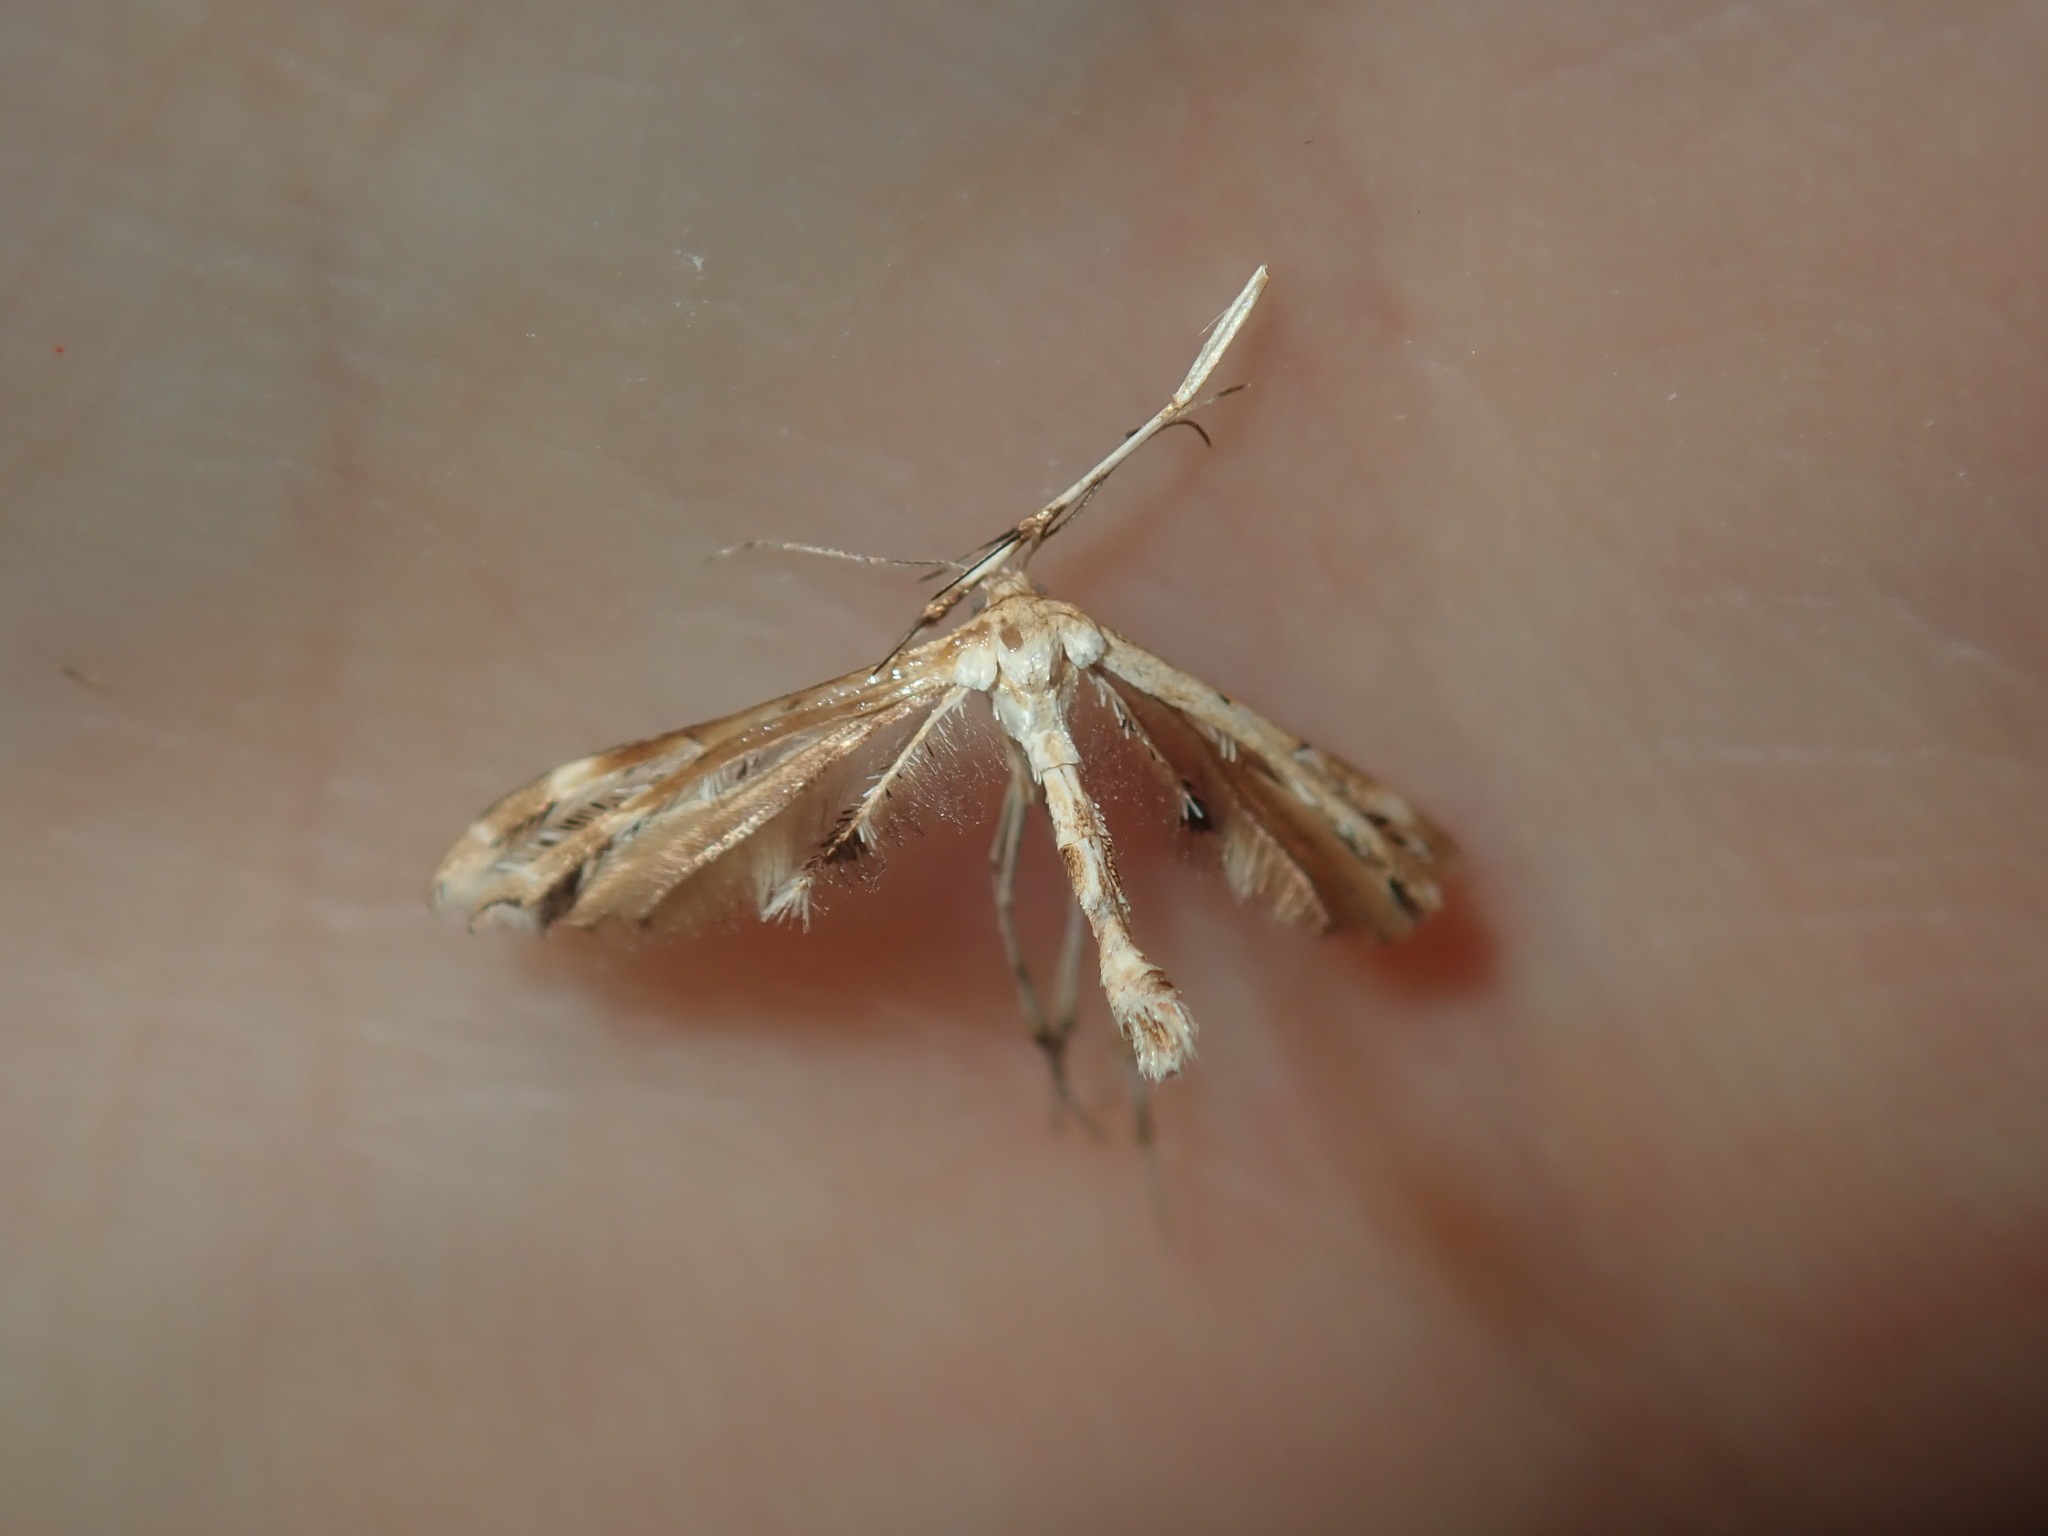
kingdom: Animalia
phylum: Arthropoda
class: Insecta
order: Lepidoptera
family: Pterophoridae
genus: Sphenarches
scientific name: Sphenarches anisodactylus
